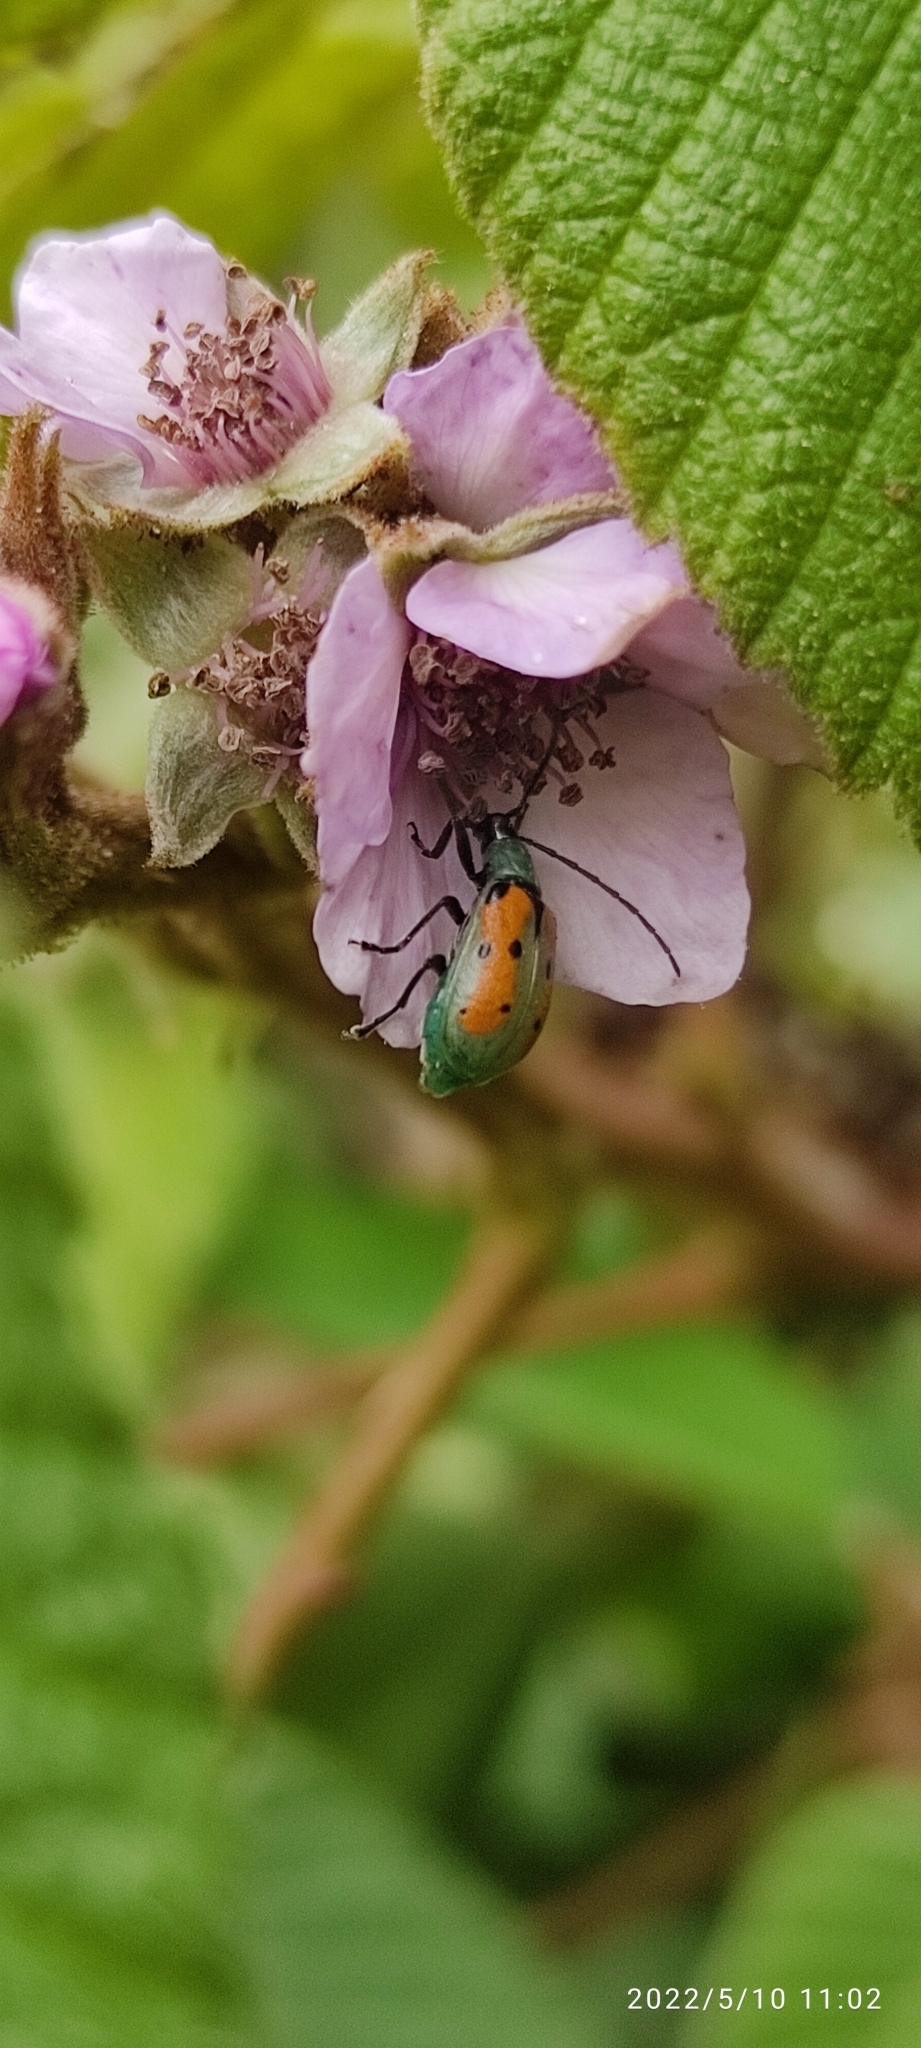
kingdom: Animalia
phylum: Arthropoda
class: Insecta
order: Coleoptera
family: Chrysomelidae
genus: Diabrotica
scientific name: Diabrotica decempunctata
